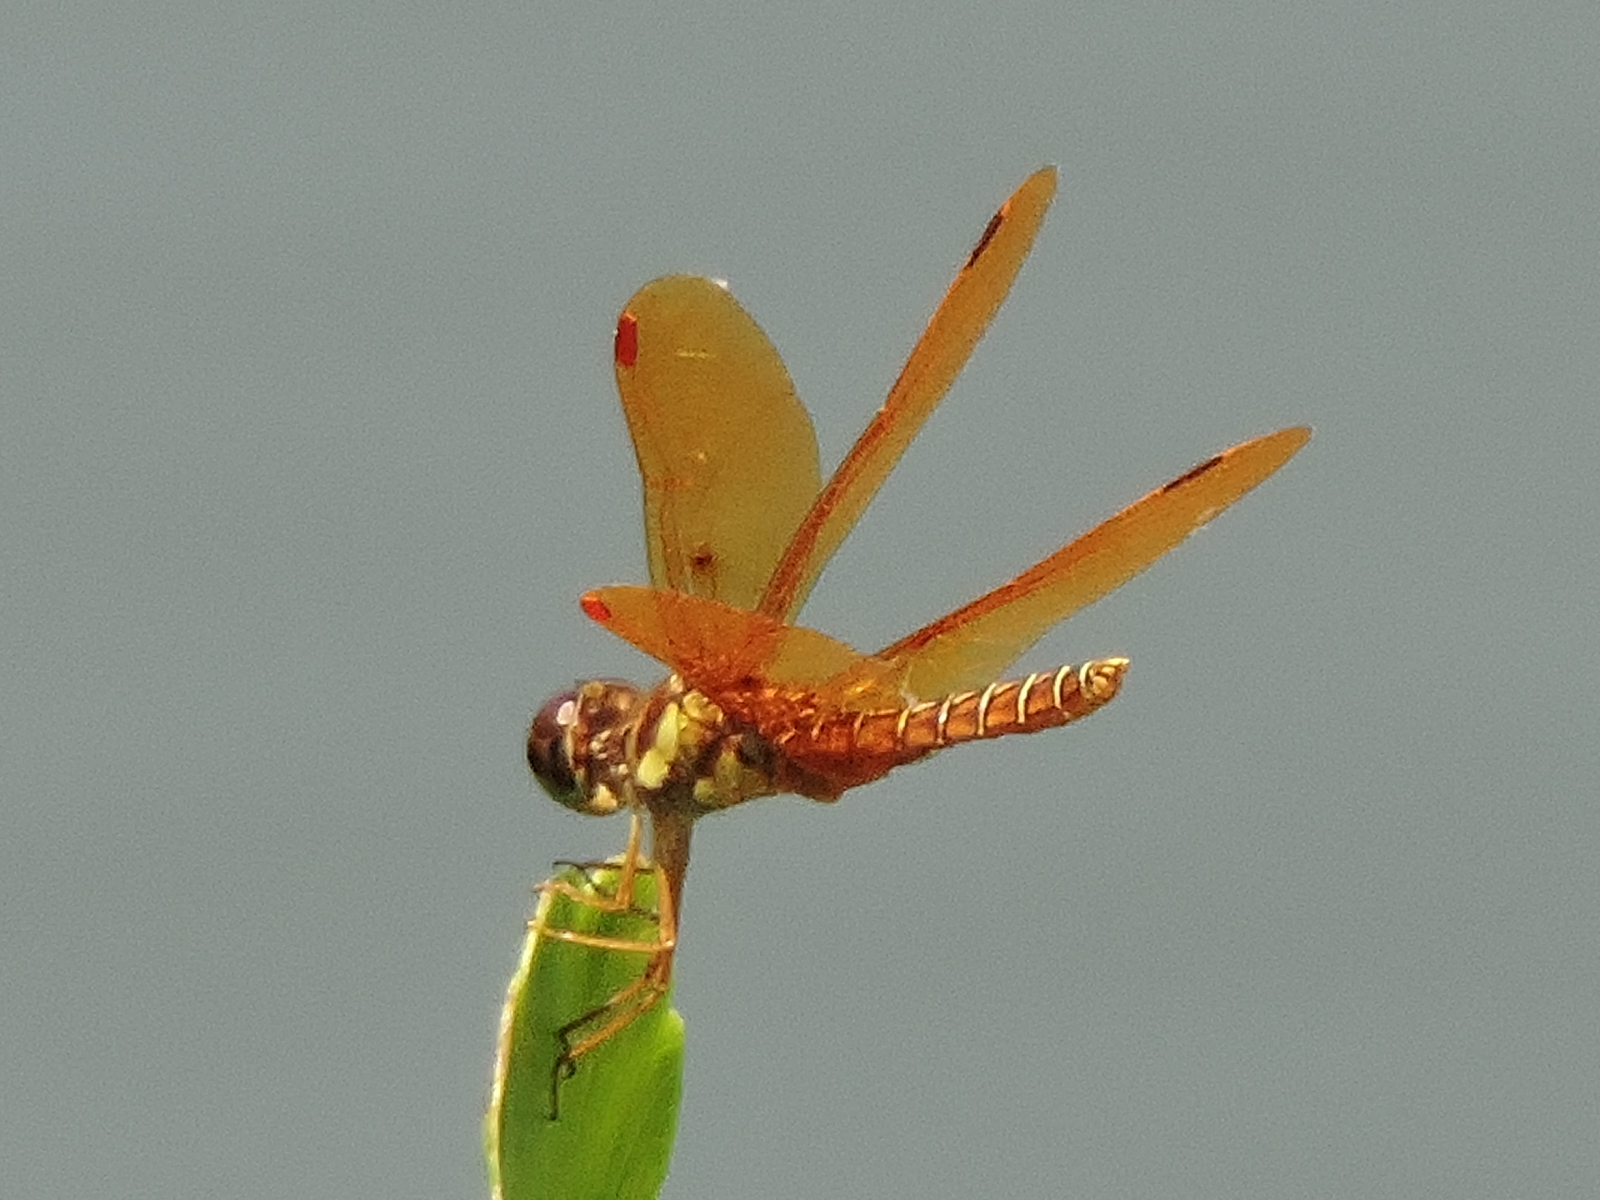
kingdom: Animalia
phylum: Arthropoda
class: Insecta
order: Odonata
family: Libellulidae
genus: Perithemis
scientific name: Perithemis tenera
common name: Eastern amberwing
